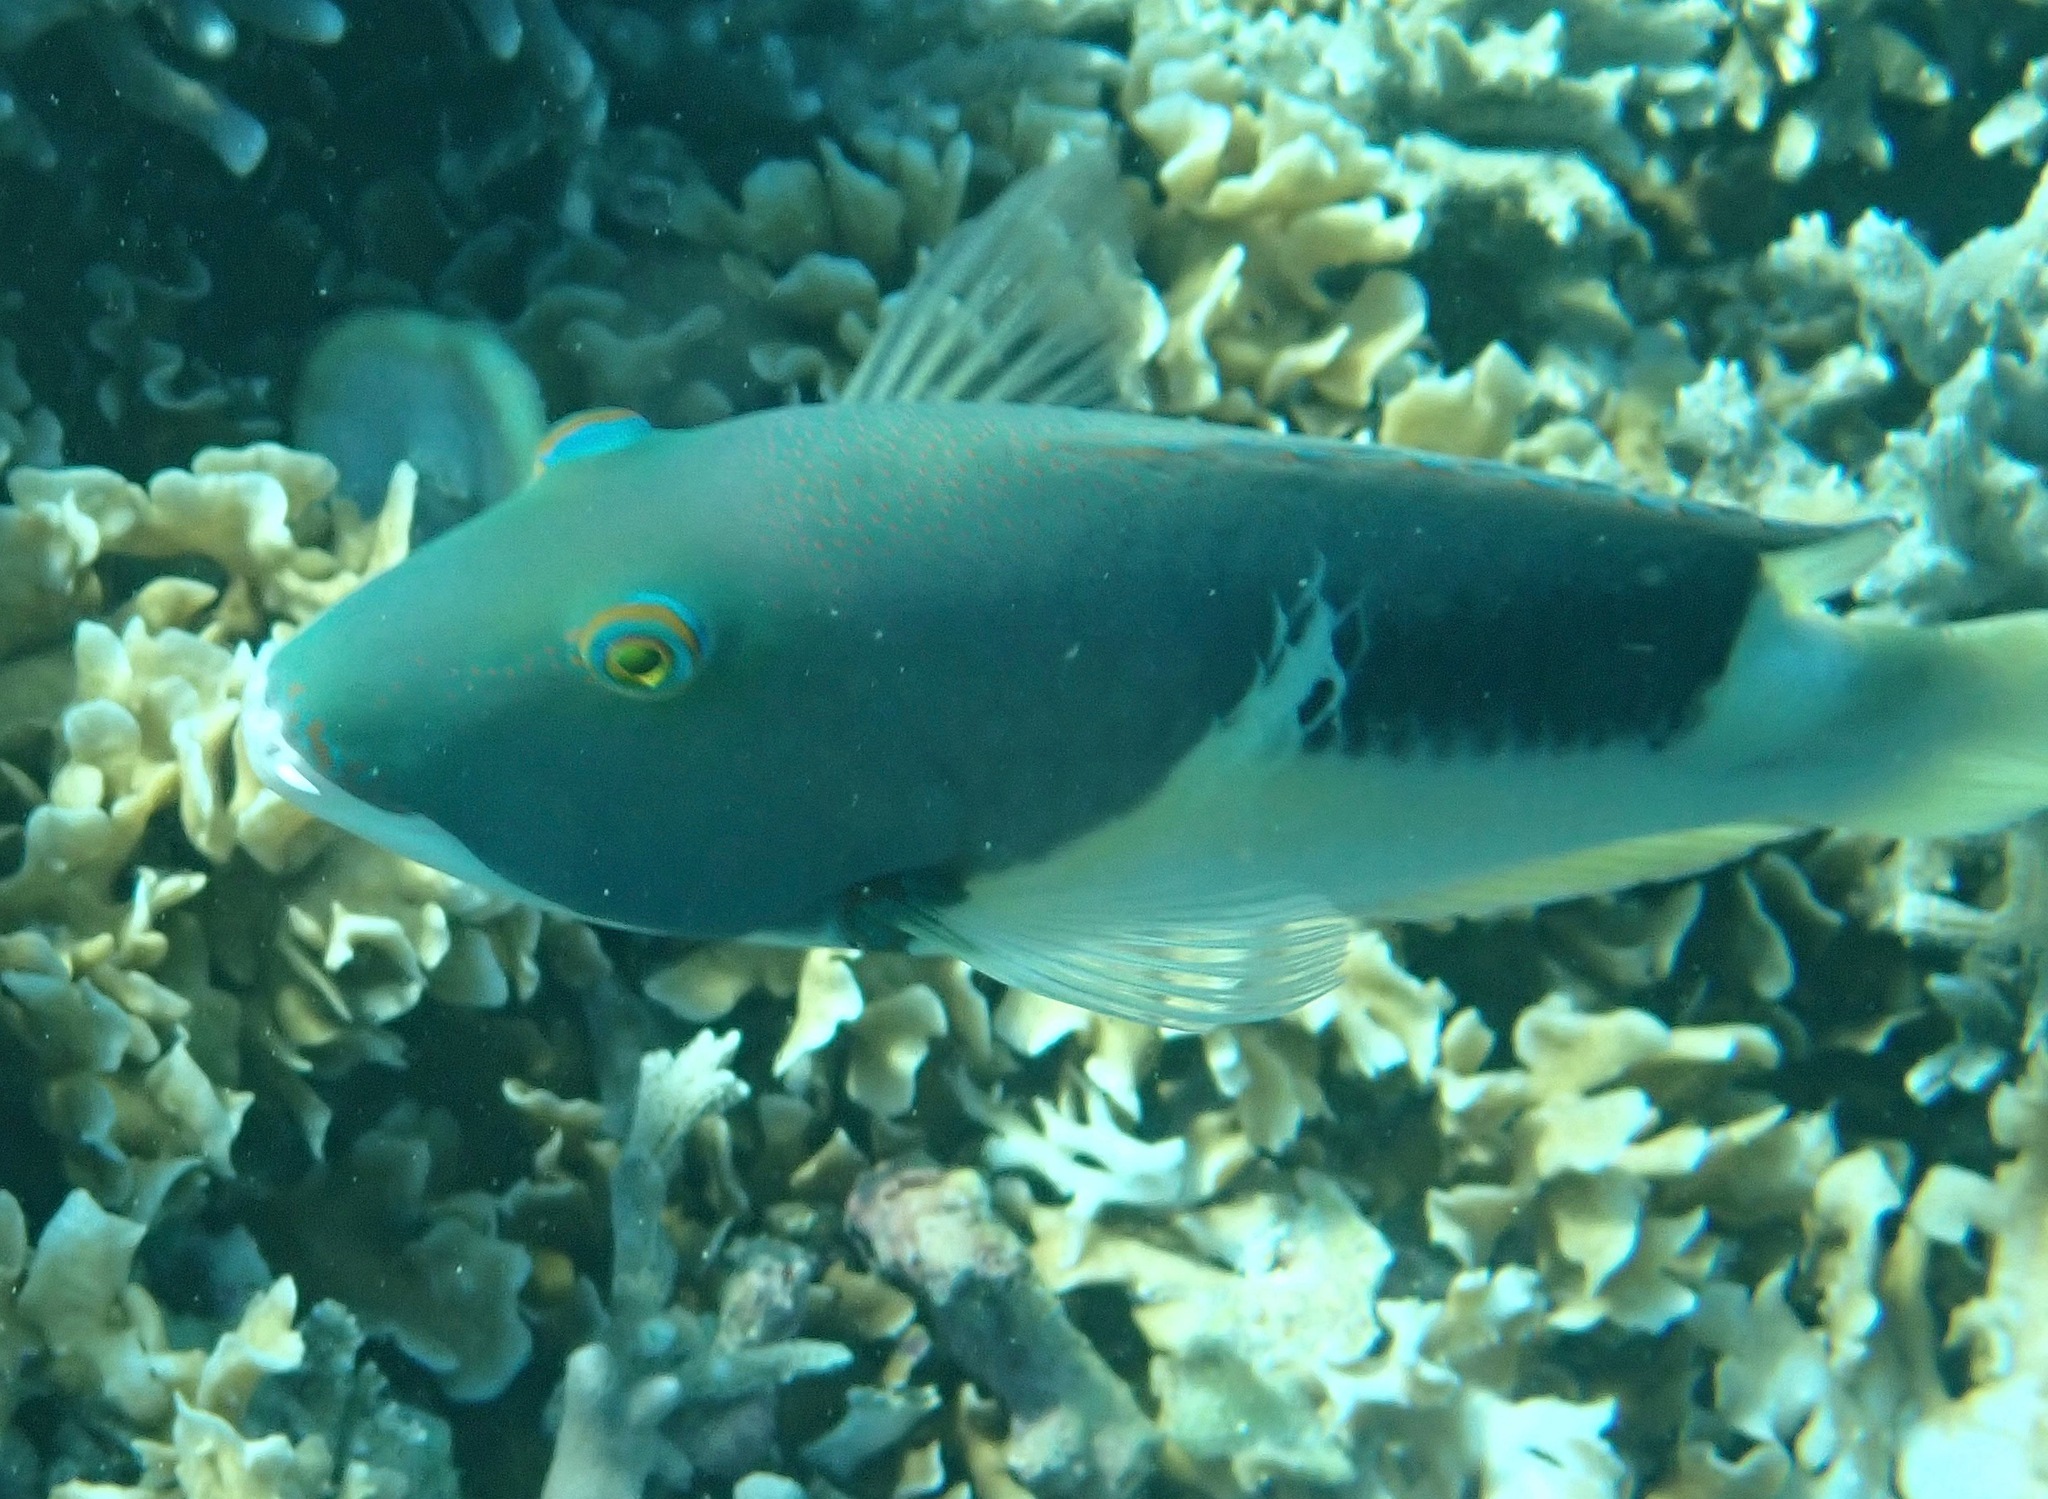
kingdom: Animalia
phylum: Chordata
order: Perciformes
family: Labridae
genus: Choerodon
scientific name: Choerodon anchorago
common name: Anchor tuskfish
